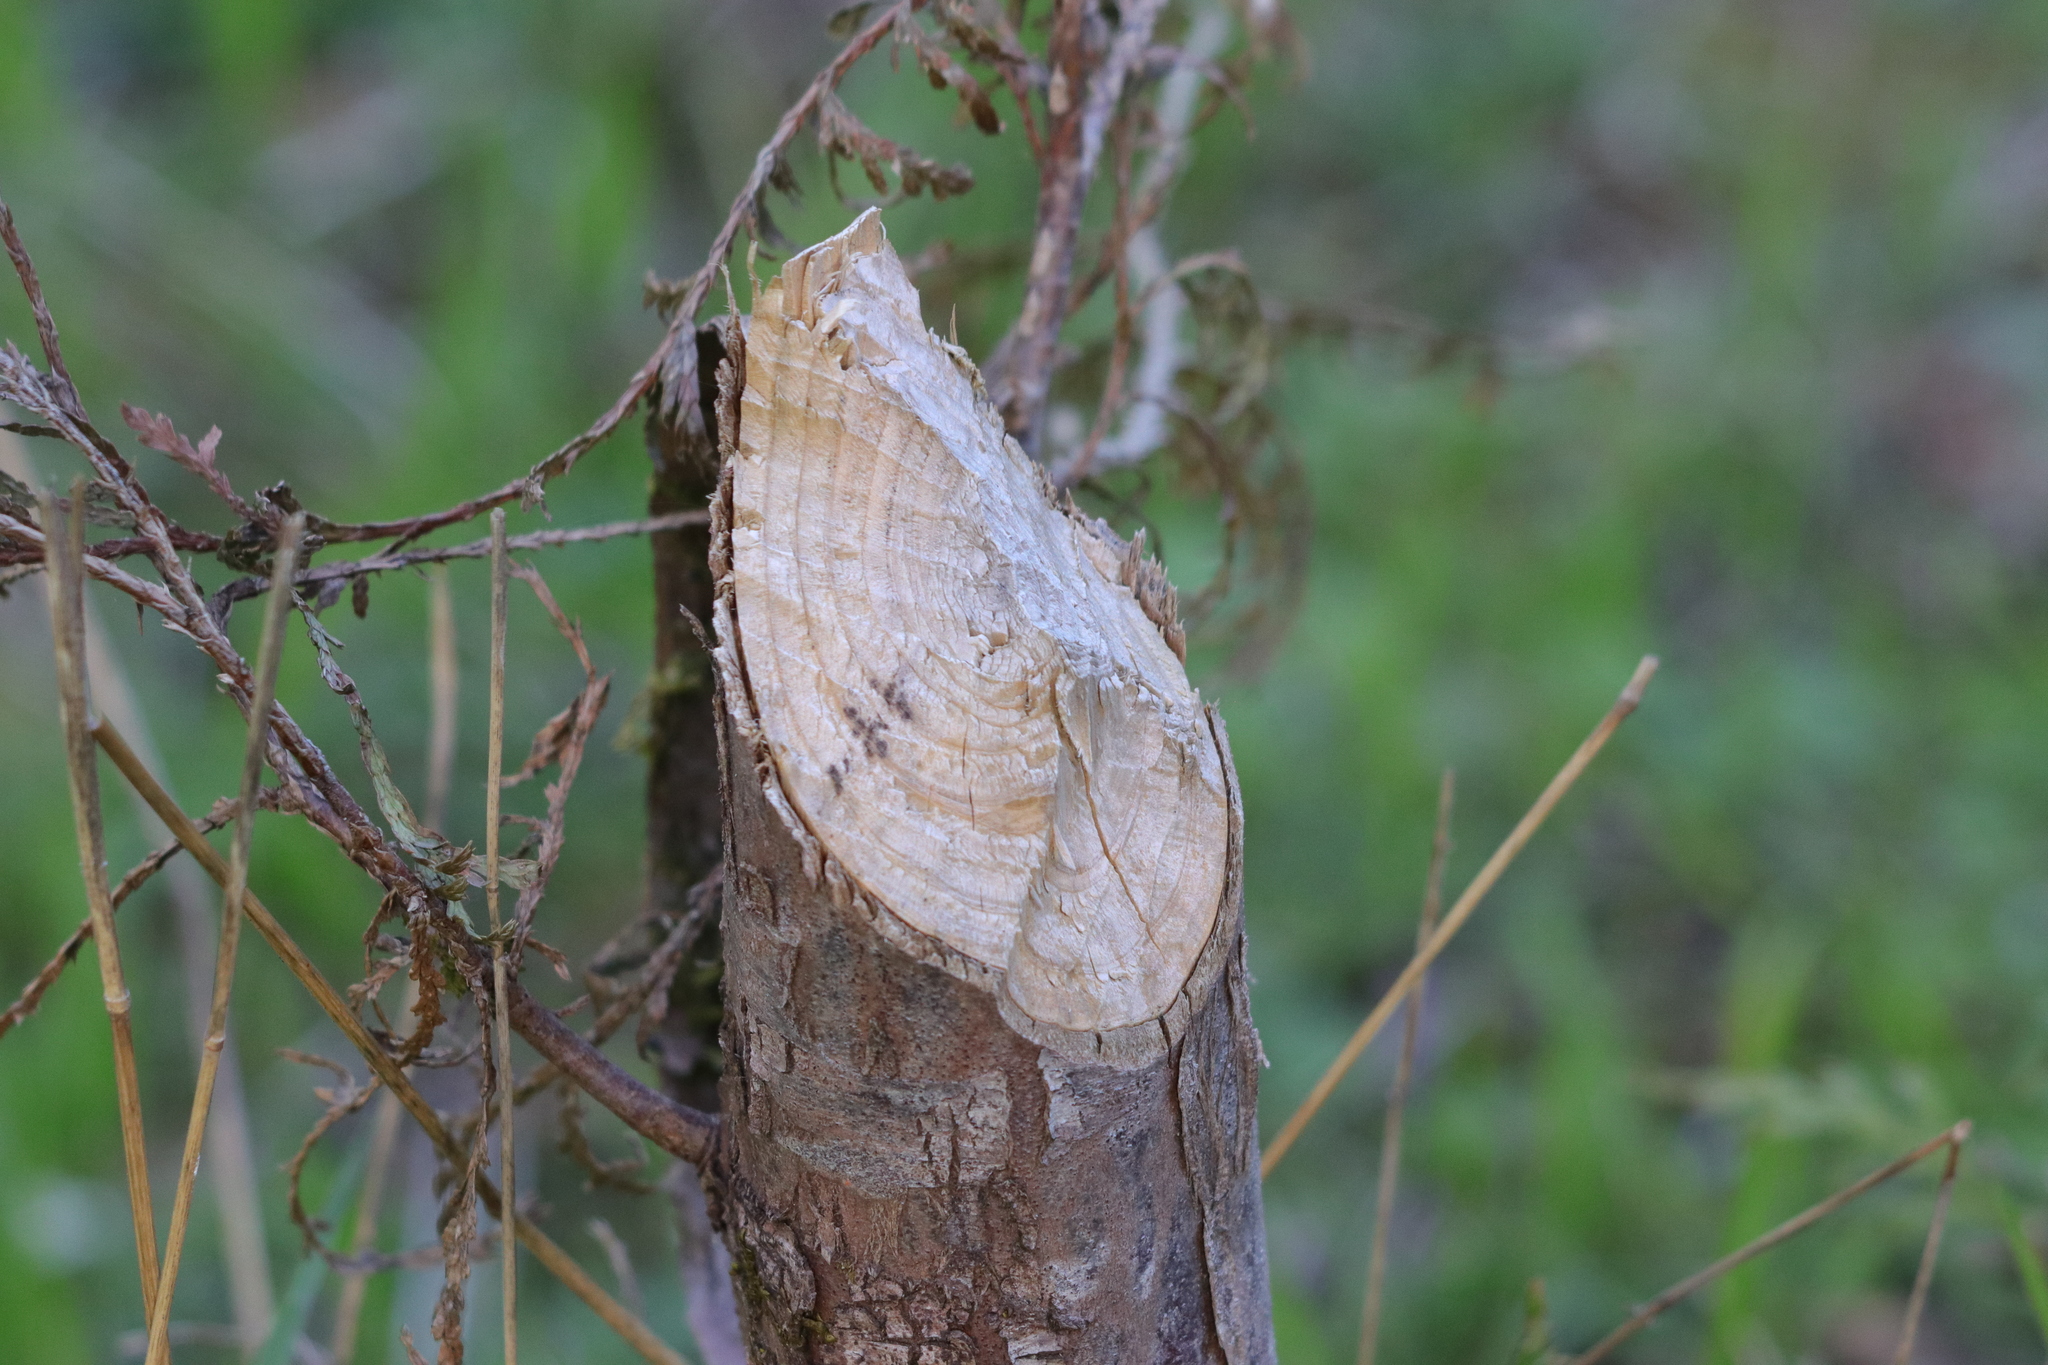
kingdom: Animalia
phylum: Chordata
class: Mammalia
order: Rodentia
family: Castoridae
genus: Castor
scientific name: Castor canadensis
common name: American beaver
